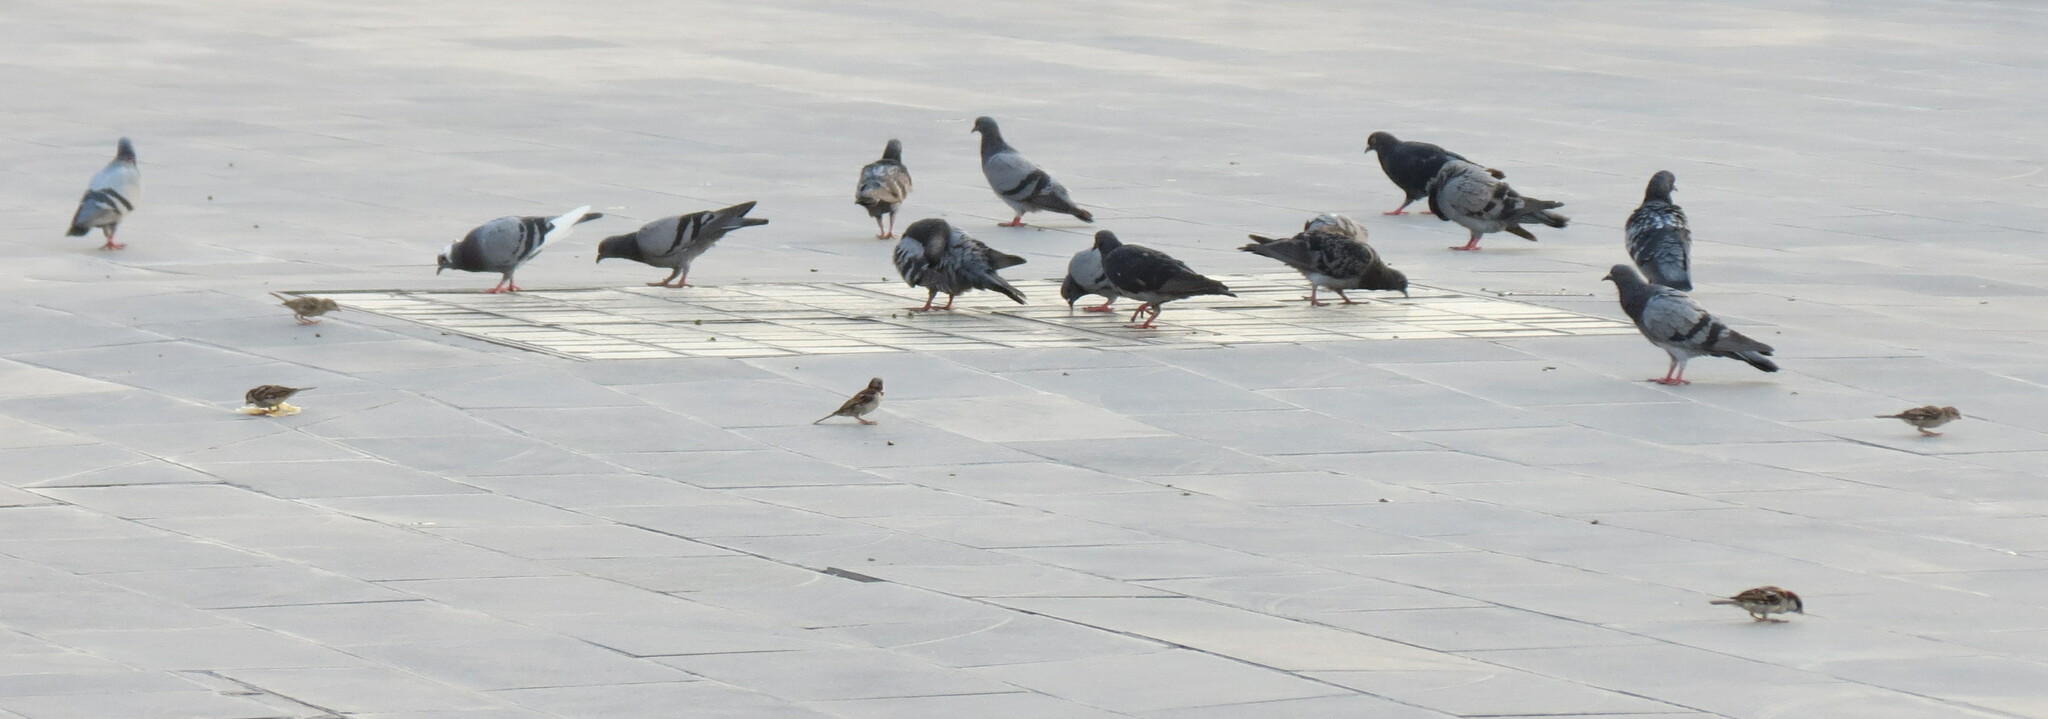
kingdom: Animalia
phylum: Chordata
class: Aves
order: Columbiformes
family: Columbidae
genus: Columba
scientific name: Columba livia
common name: Rock pigeon
